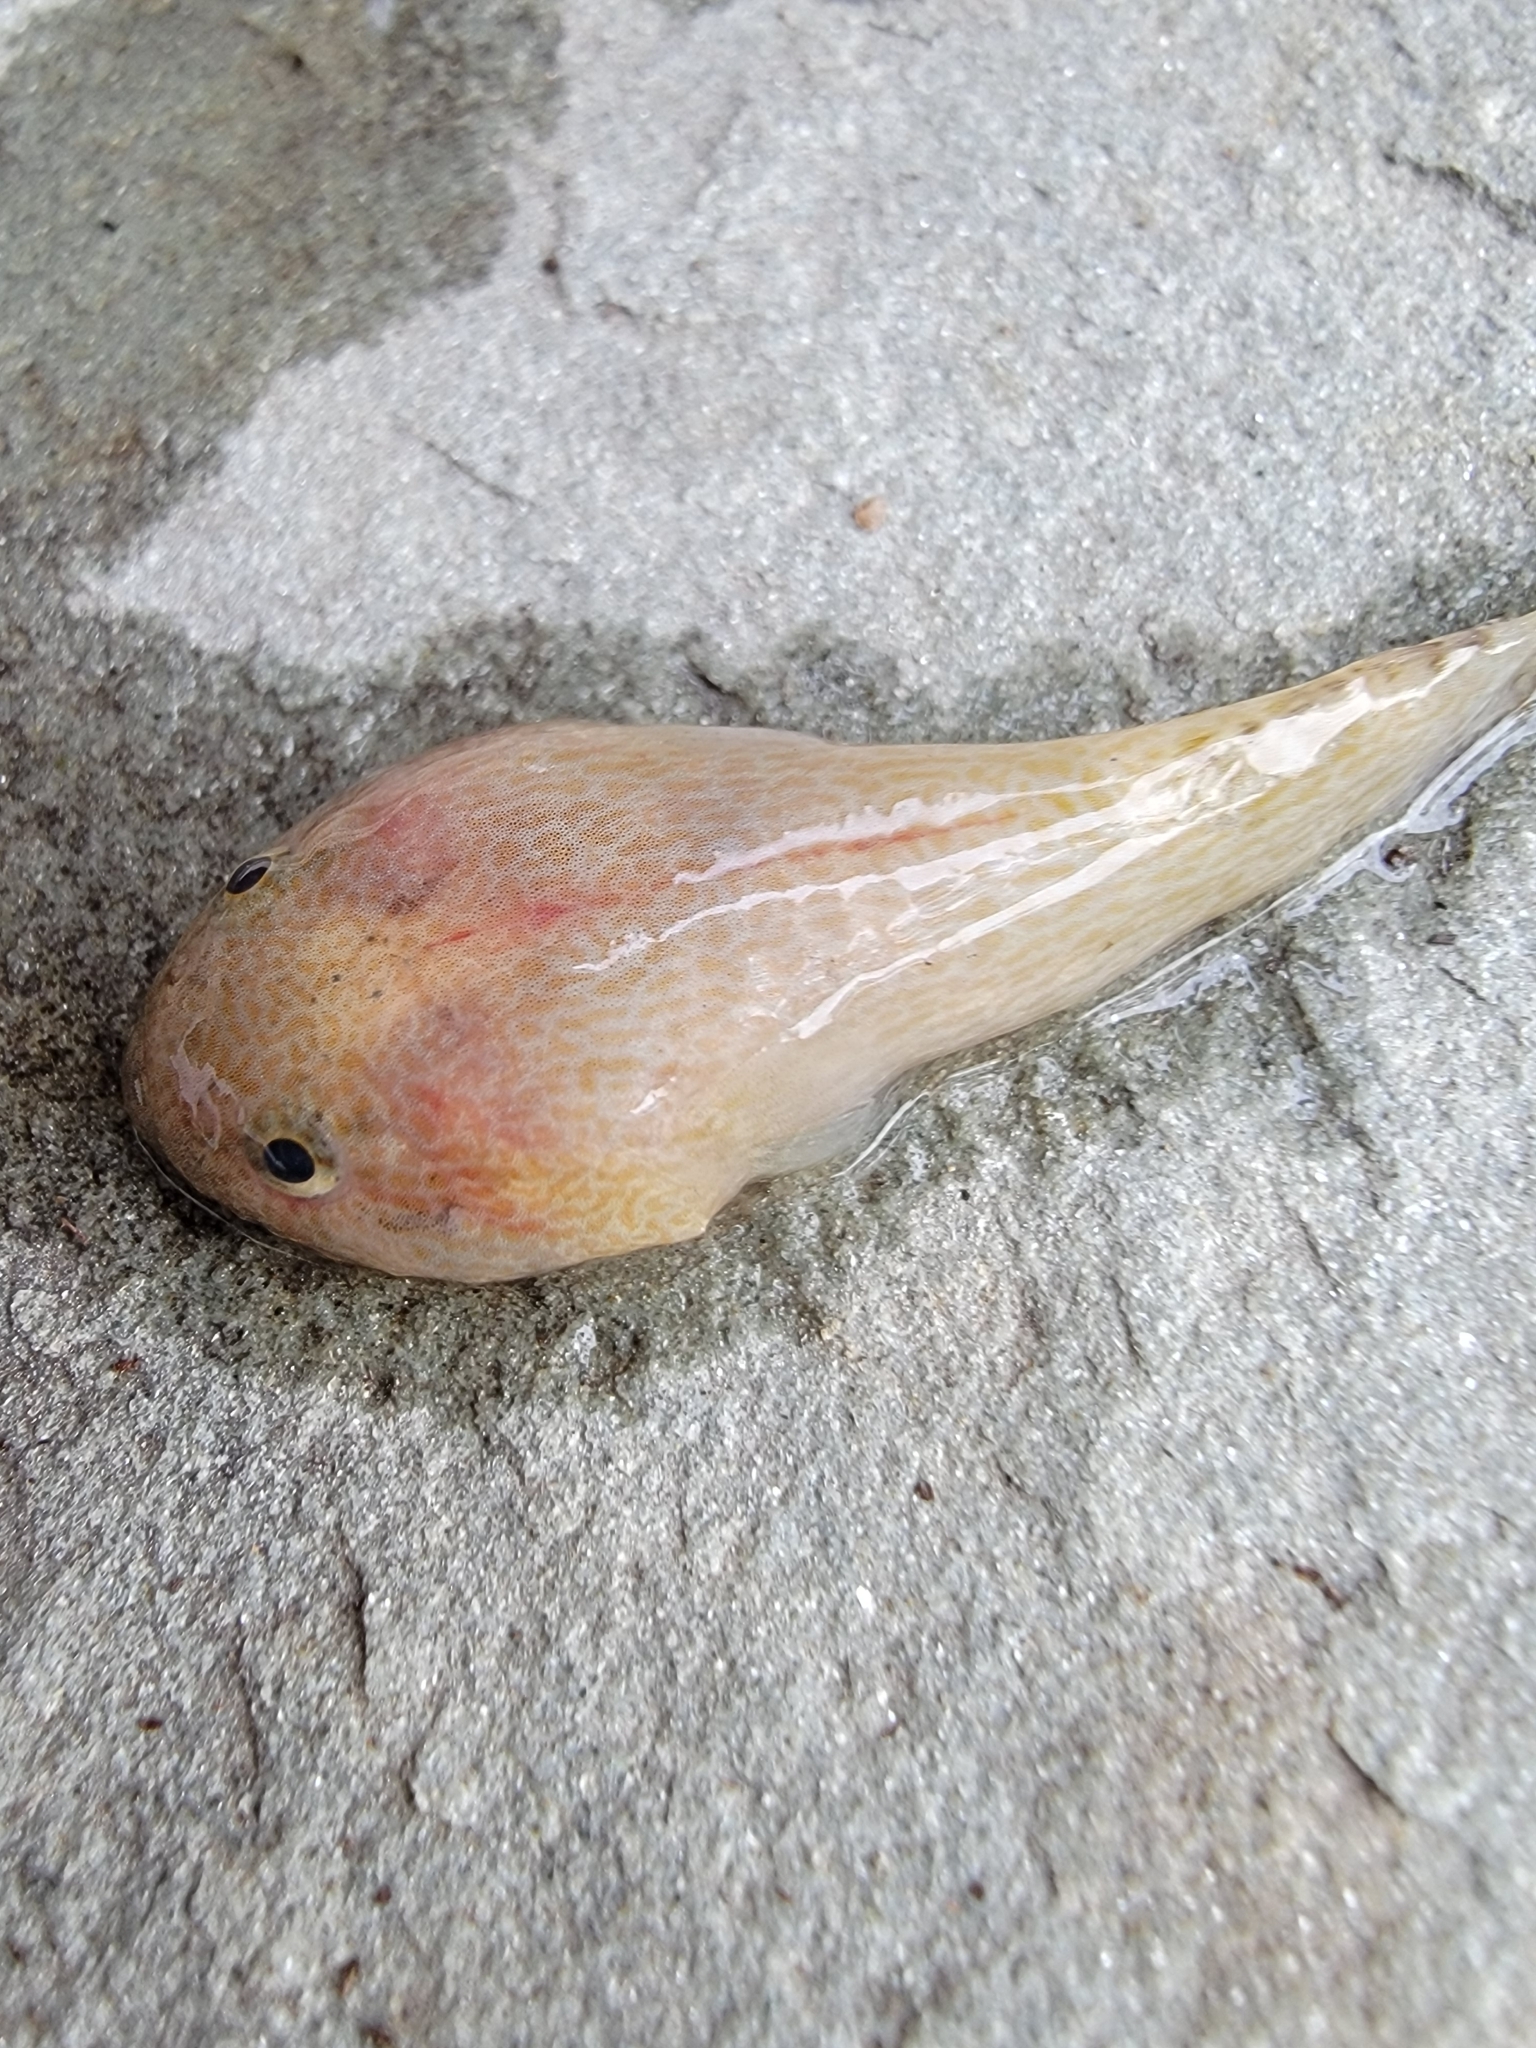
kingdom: Animalia
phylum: Chordata
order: Gobiesociformes
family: Gobiesocidae
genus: Gobiesox
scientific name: Gobiesox strumosus
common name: Skilletfish
